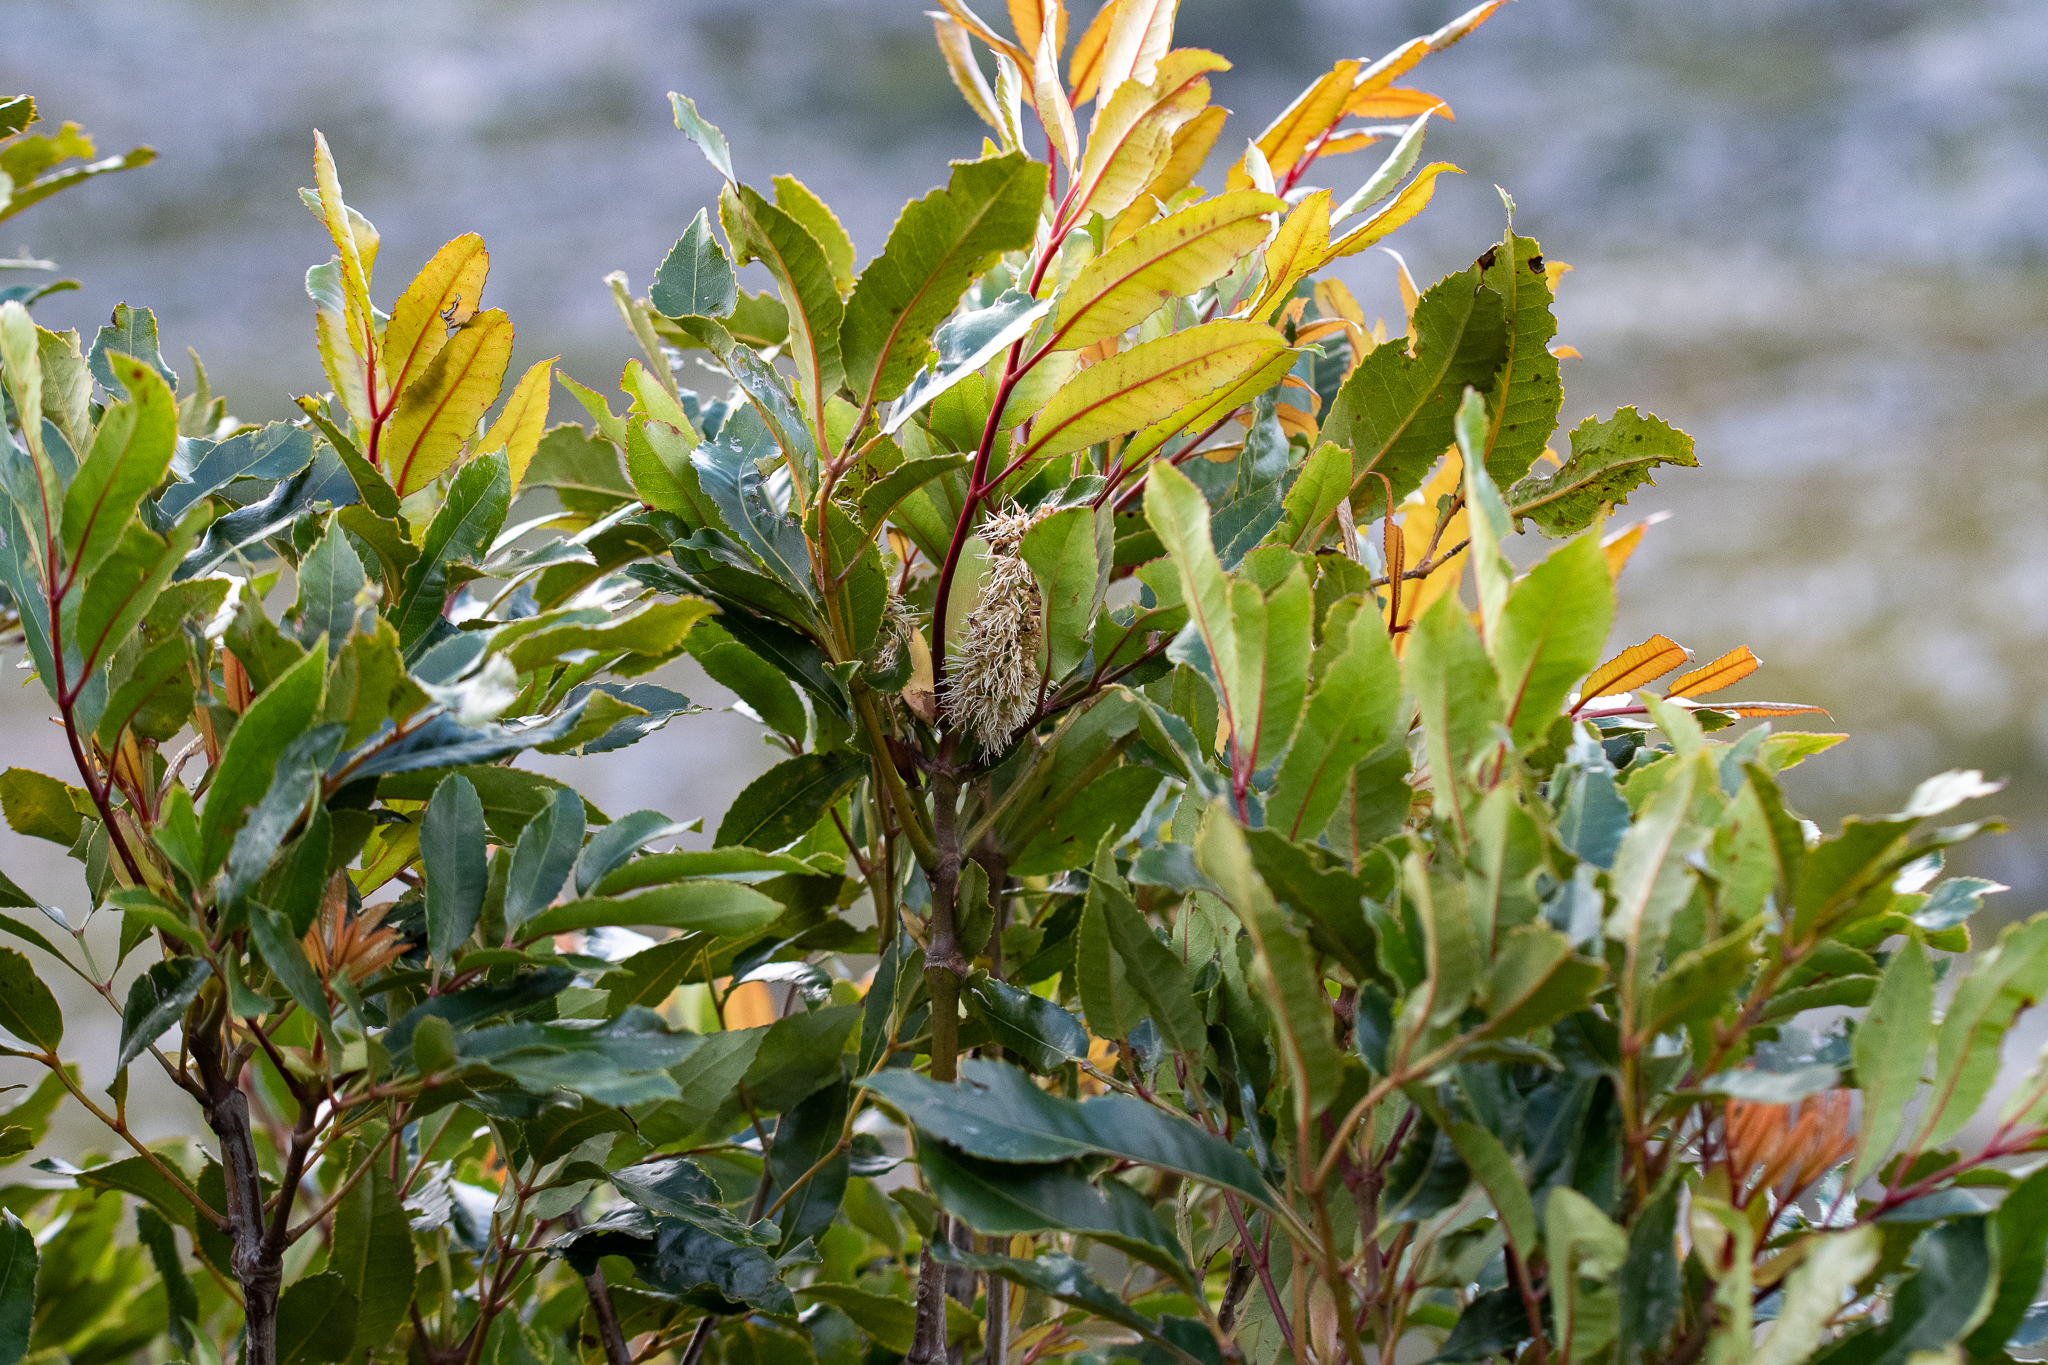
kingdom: Plantae
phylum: Tracheophyta
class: Magnoliopsida
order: Sapindales
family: Anacardiaceae
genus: Laurophyllus
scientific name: Laurophyllus capensis
